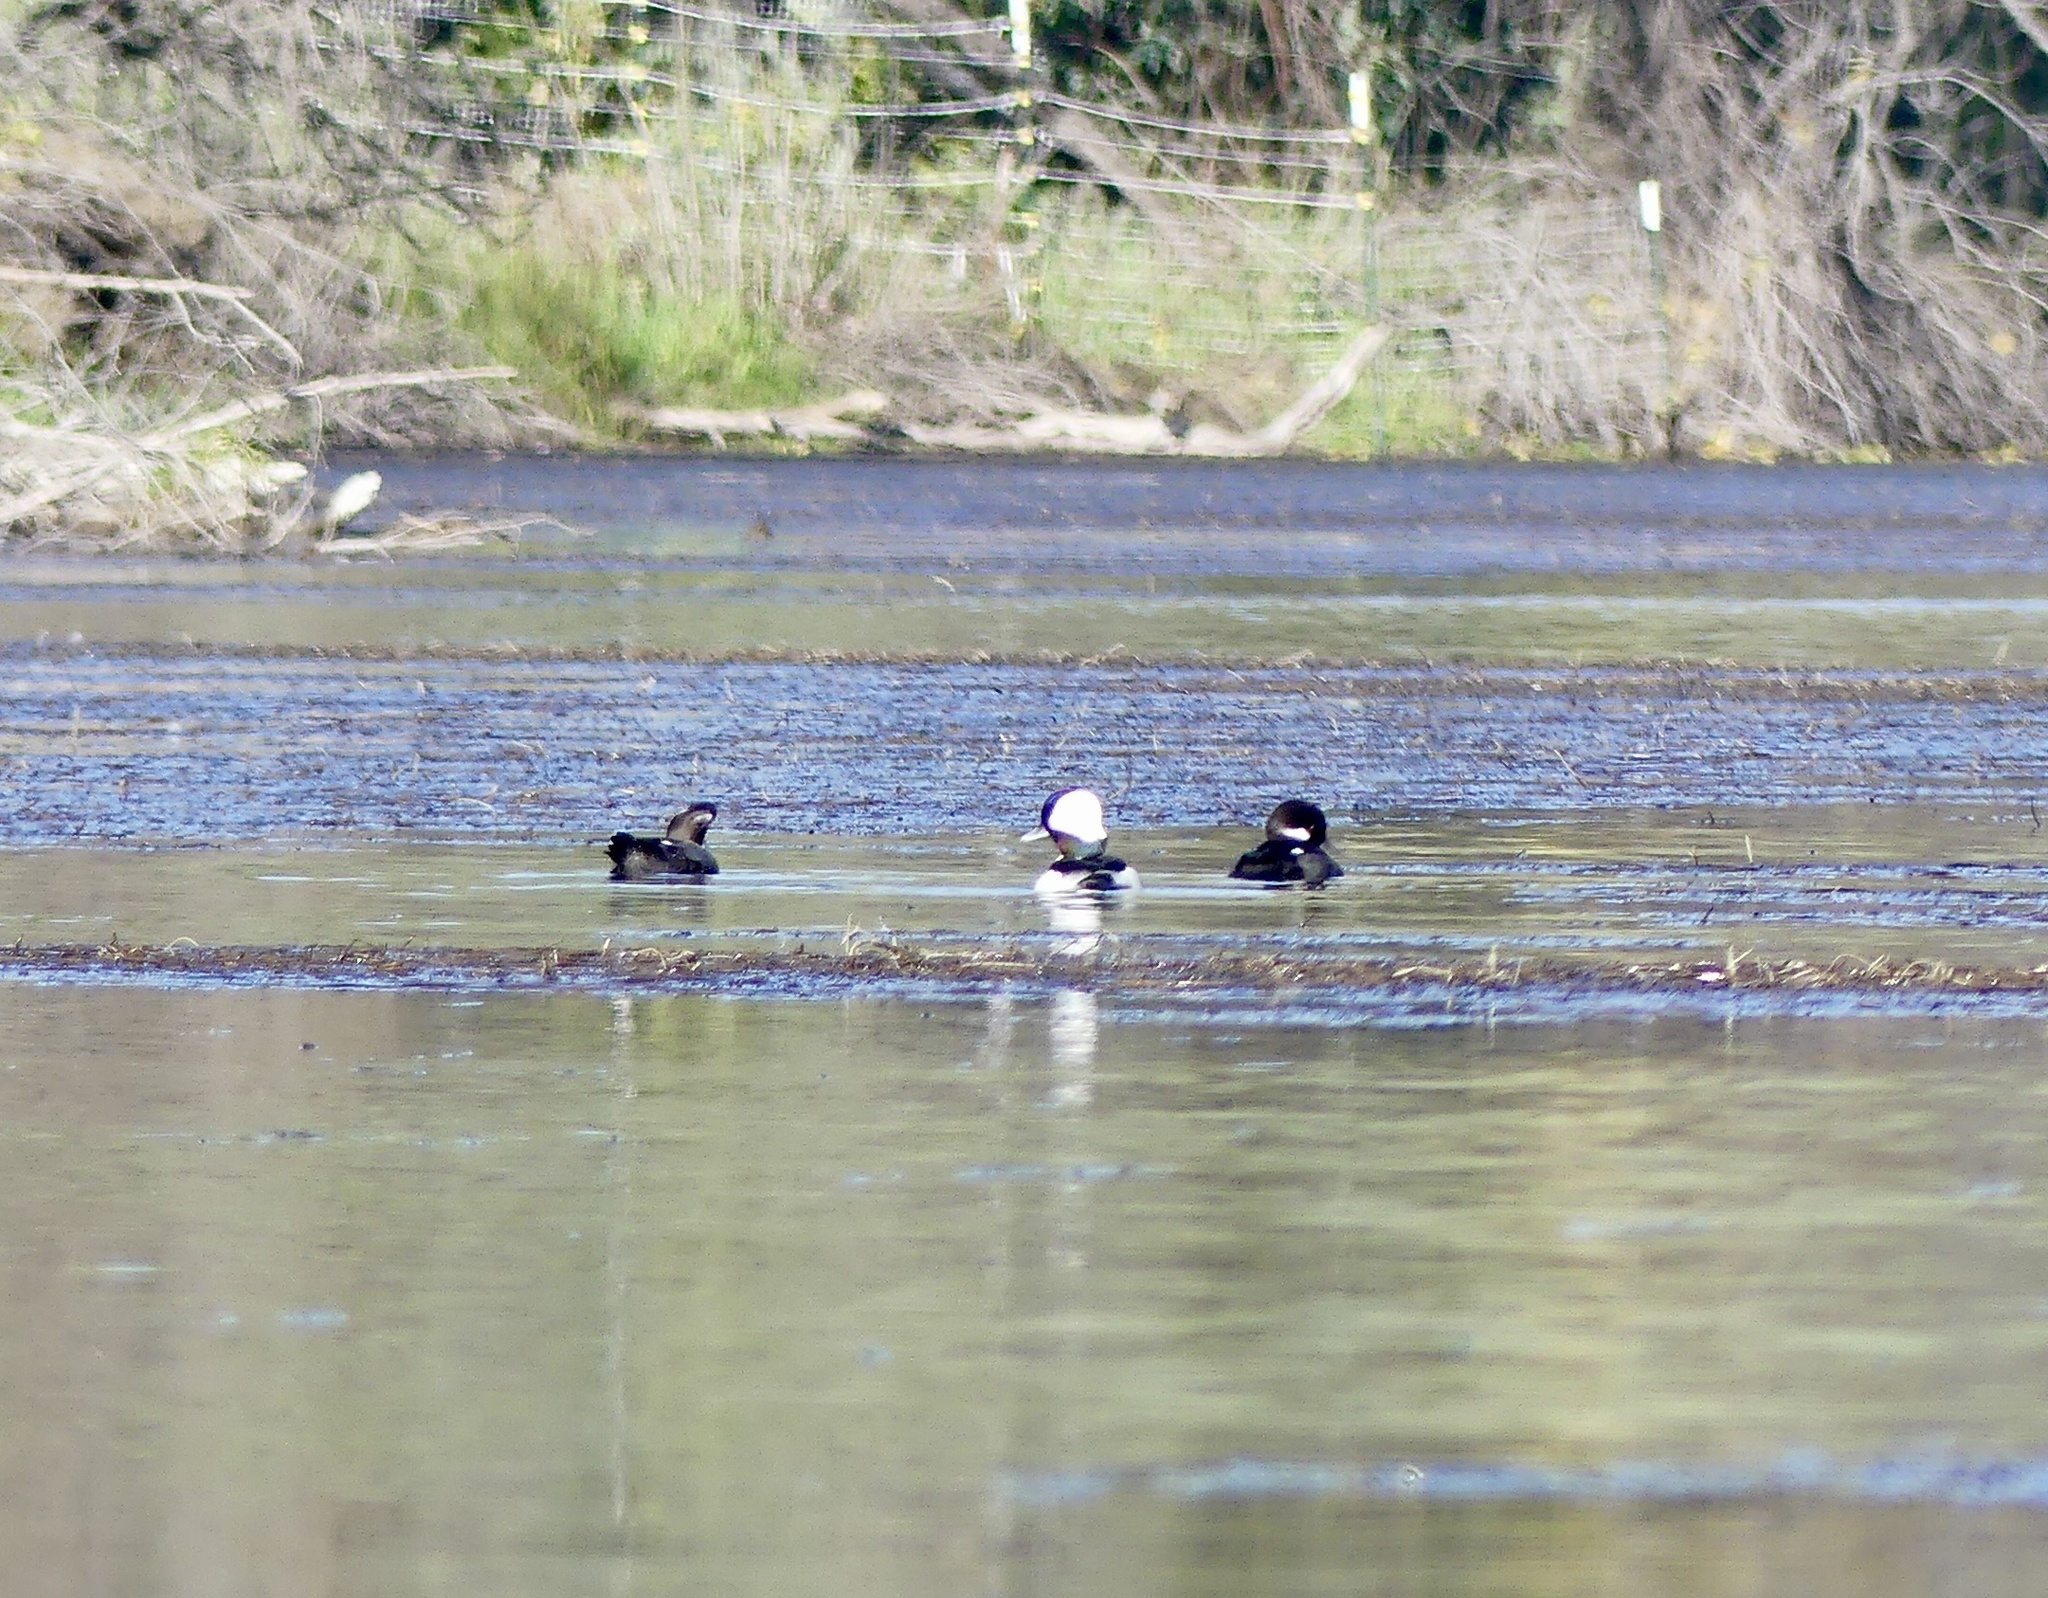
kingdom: Animalia
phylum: Chordata
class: Aves
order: Anseriformes
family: Anatidae
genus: Bucephala
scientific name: Bucephala albeola
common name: Bufflehead
